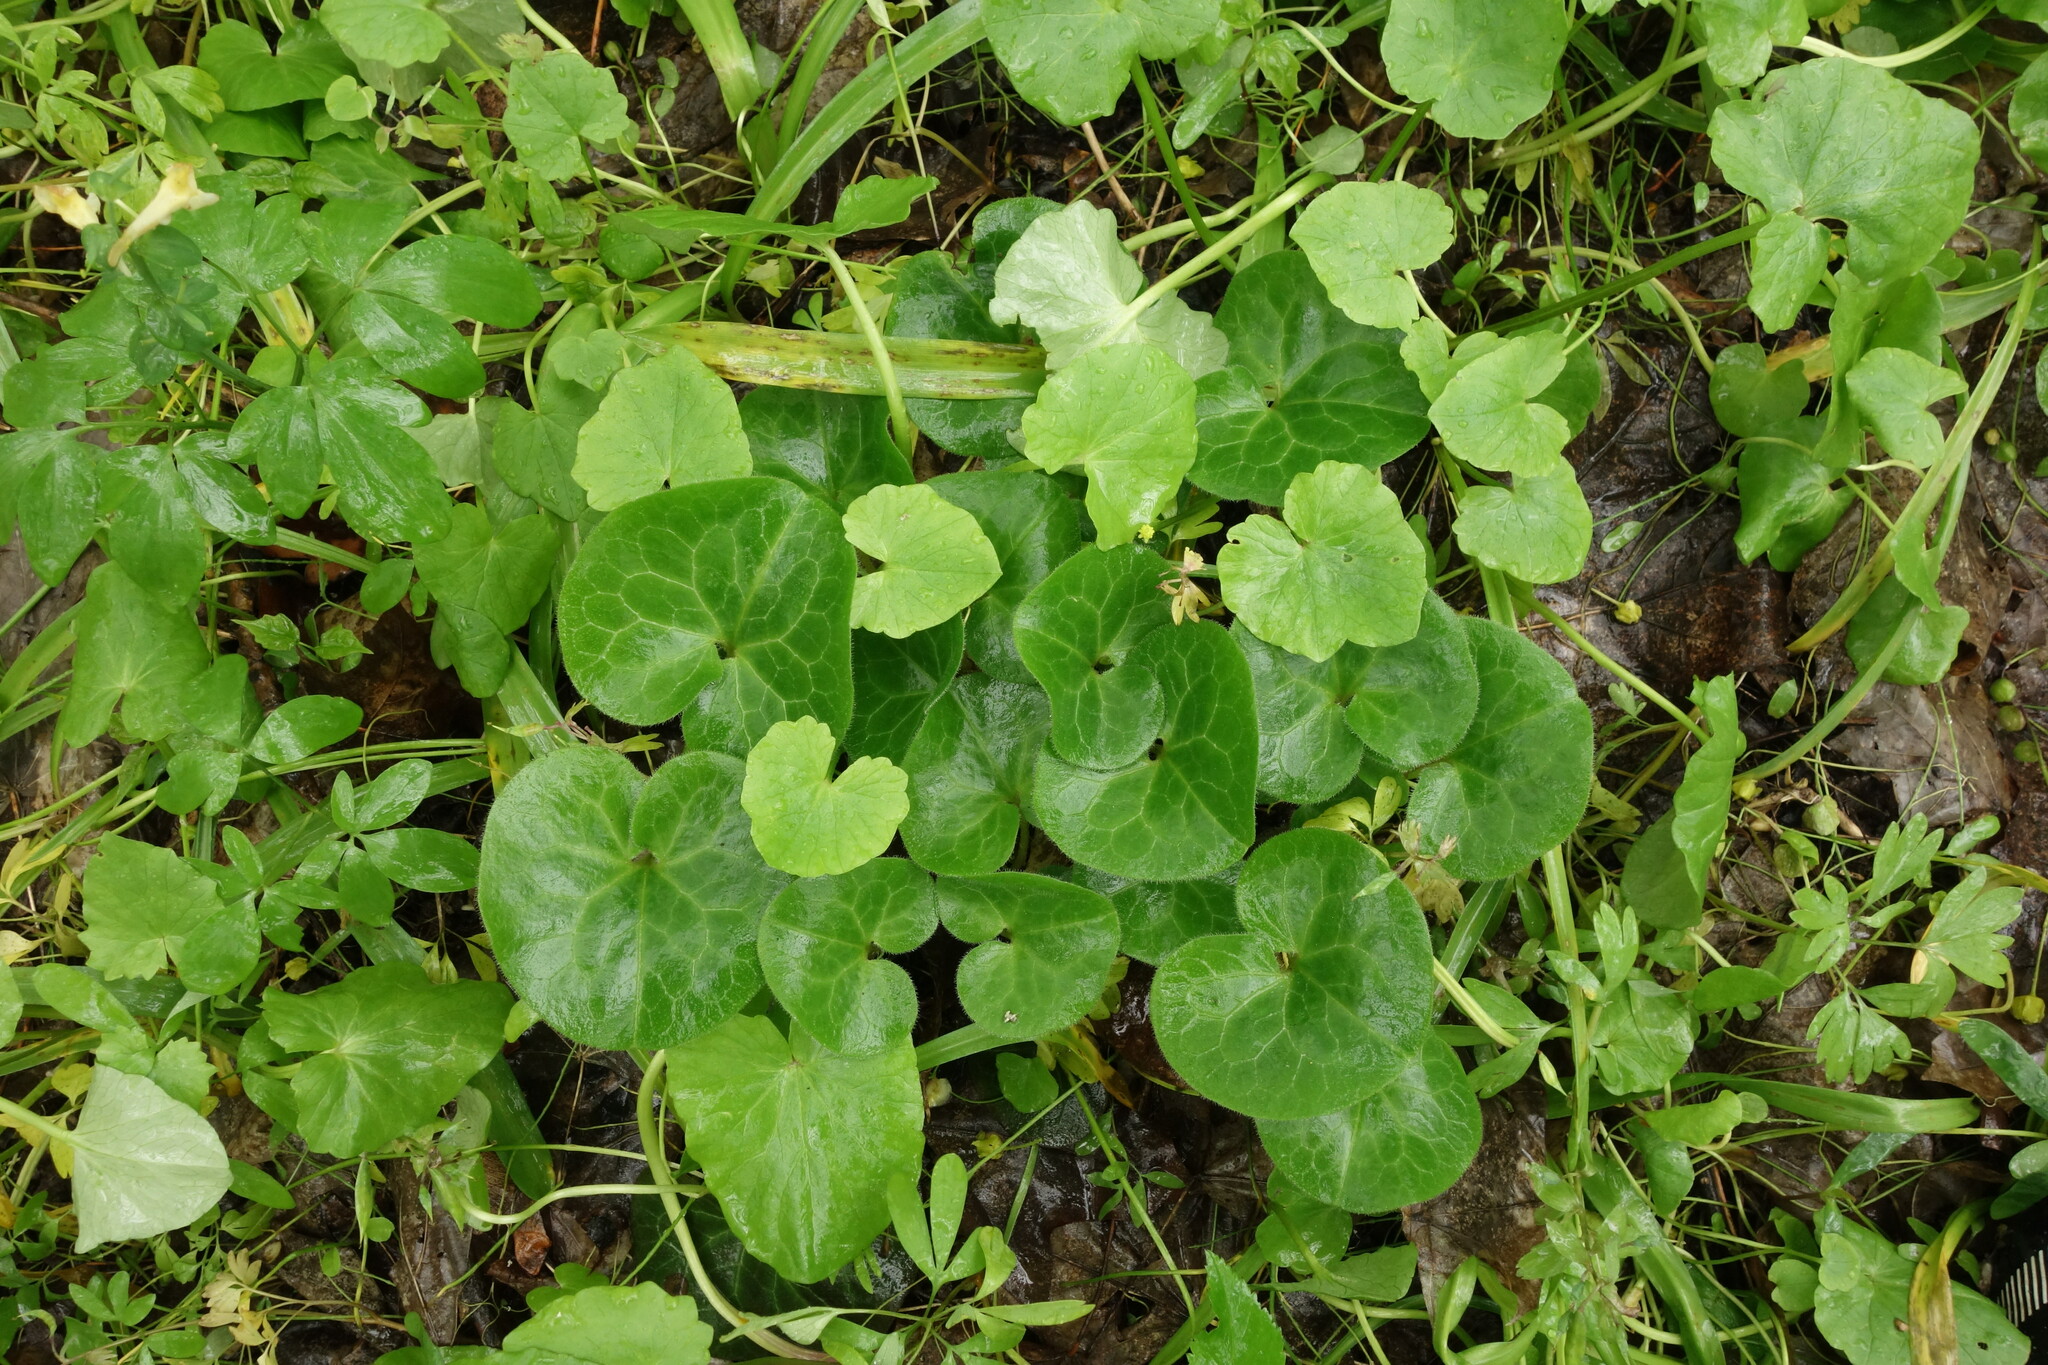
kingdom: Plantae
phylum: Tracheophyta
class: Magnoliopsida
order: Piperales
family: Aristolochiaceae
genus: Asarum
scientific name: Asarum europaeum
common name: Asarabacca
